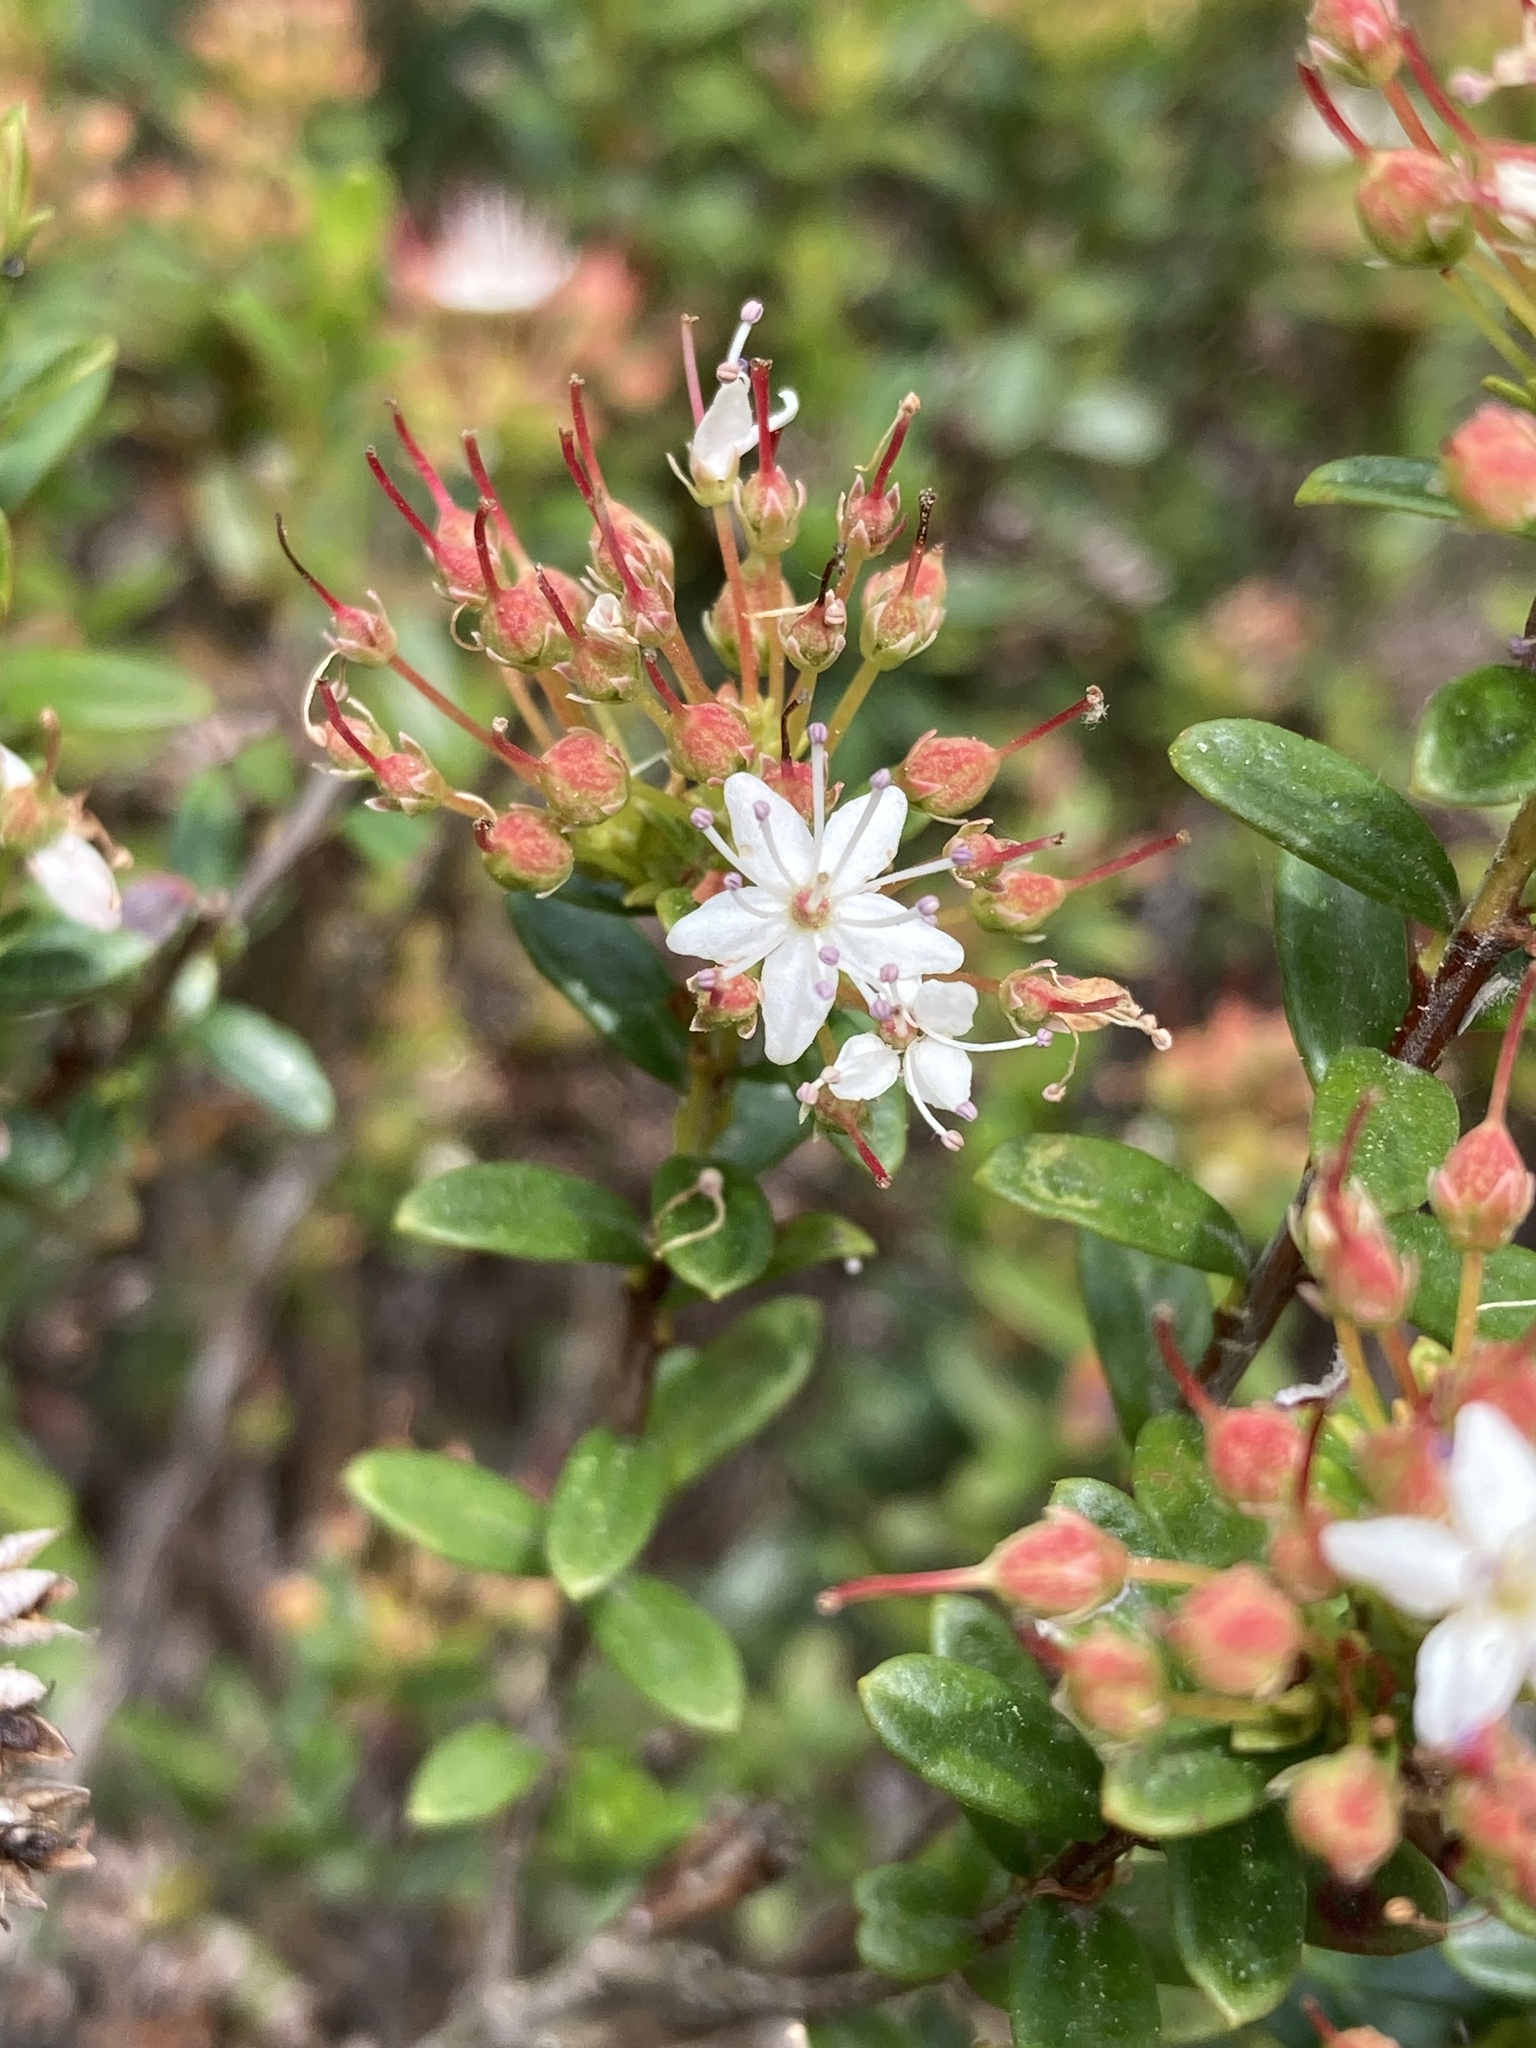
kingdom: Plantae
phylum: Tracheophyta
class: Magnoliopsida
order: Ericales
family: Ericaceae
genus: Kalmia
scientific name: Kalmia buxifolia
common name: Sandmyrtle
